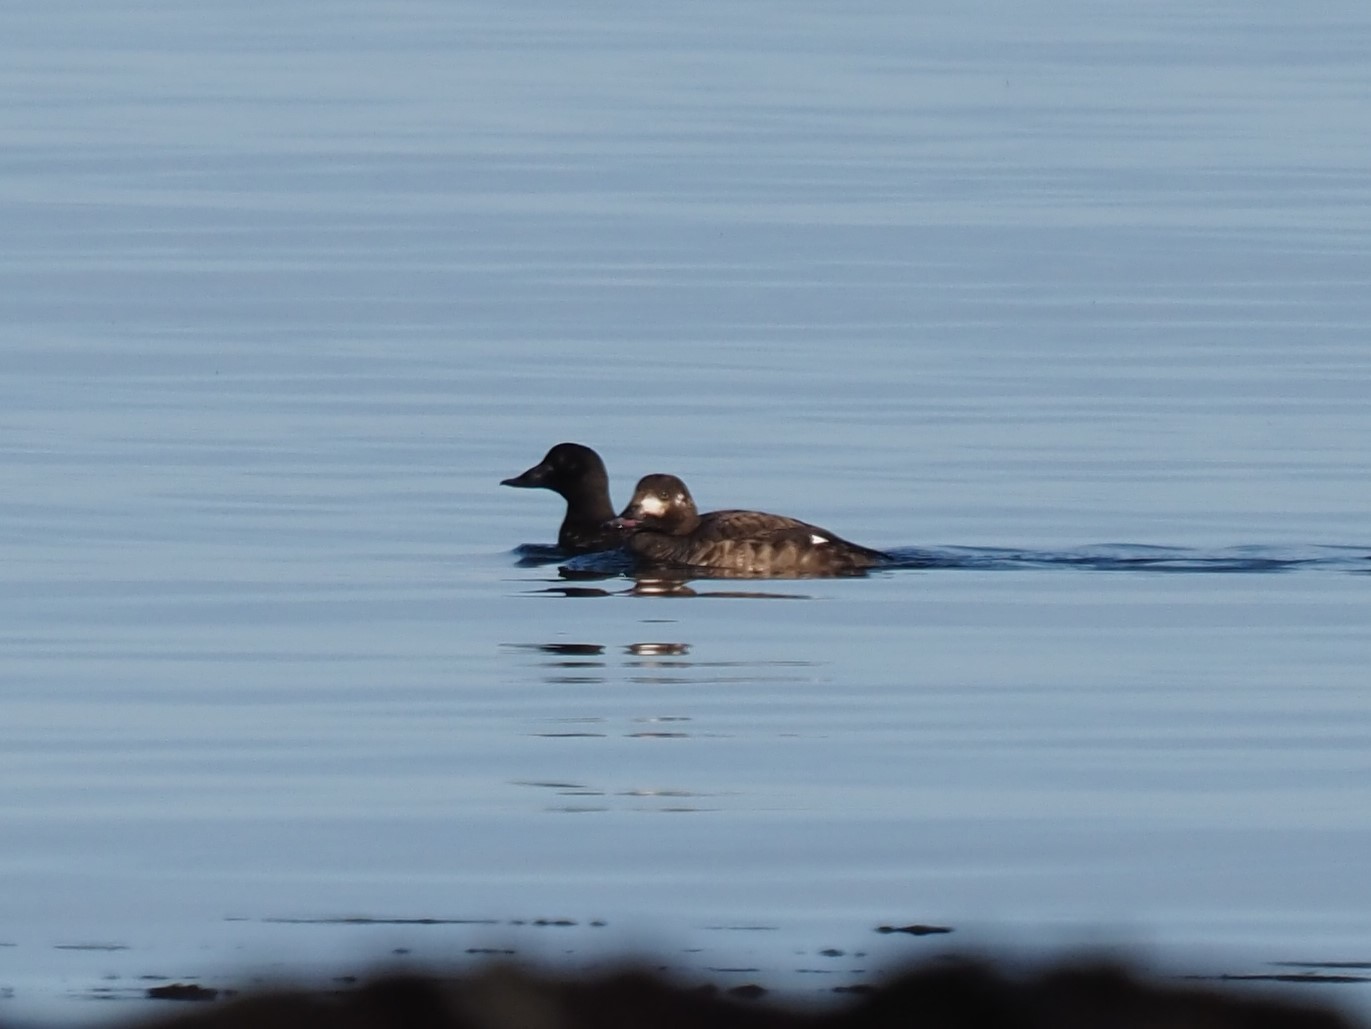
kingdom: Animalia
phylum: Chordata
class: Aves
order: Anseriformes
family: Anatidae
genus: Melanitta
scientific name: Melanitta deglandi
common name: White-winged scoter
